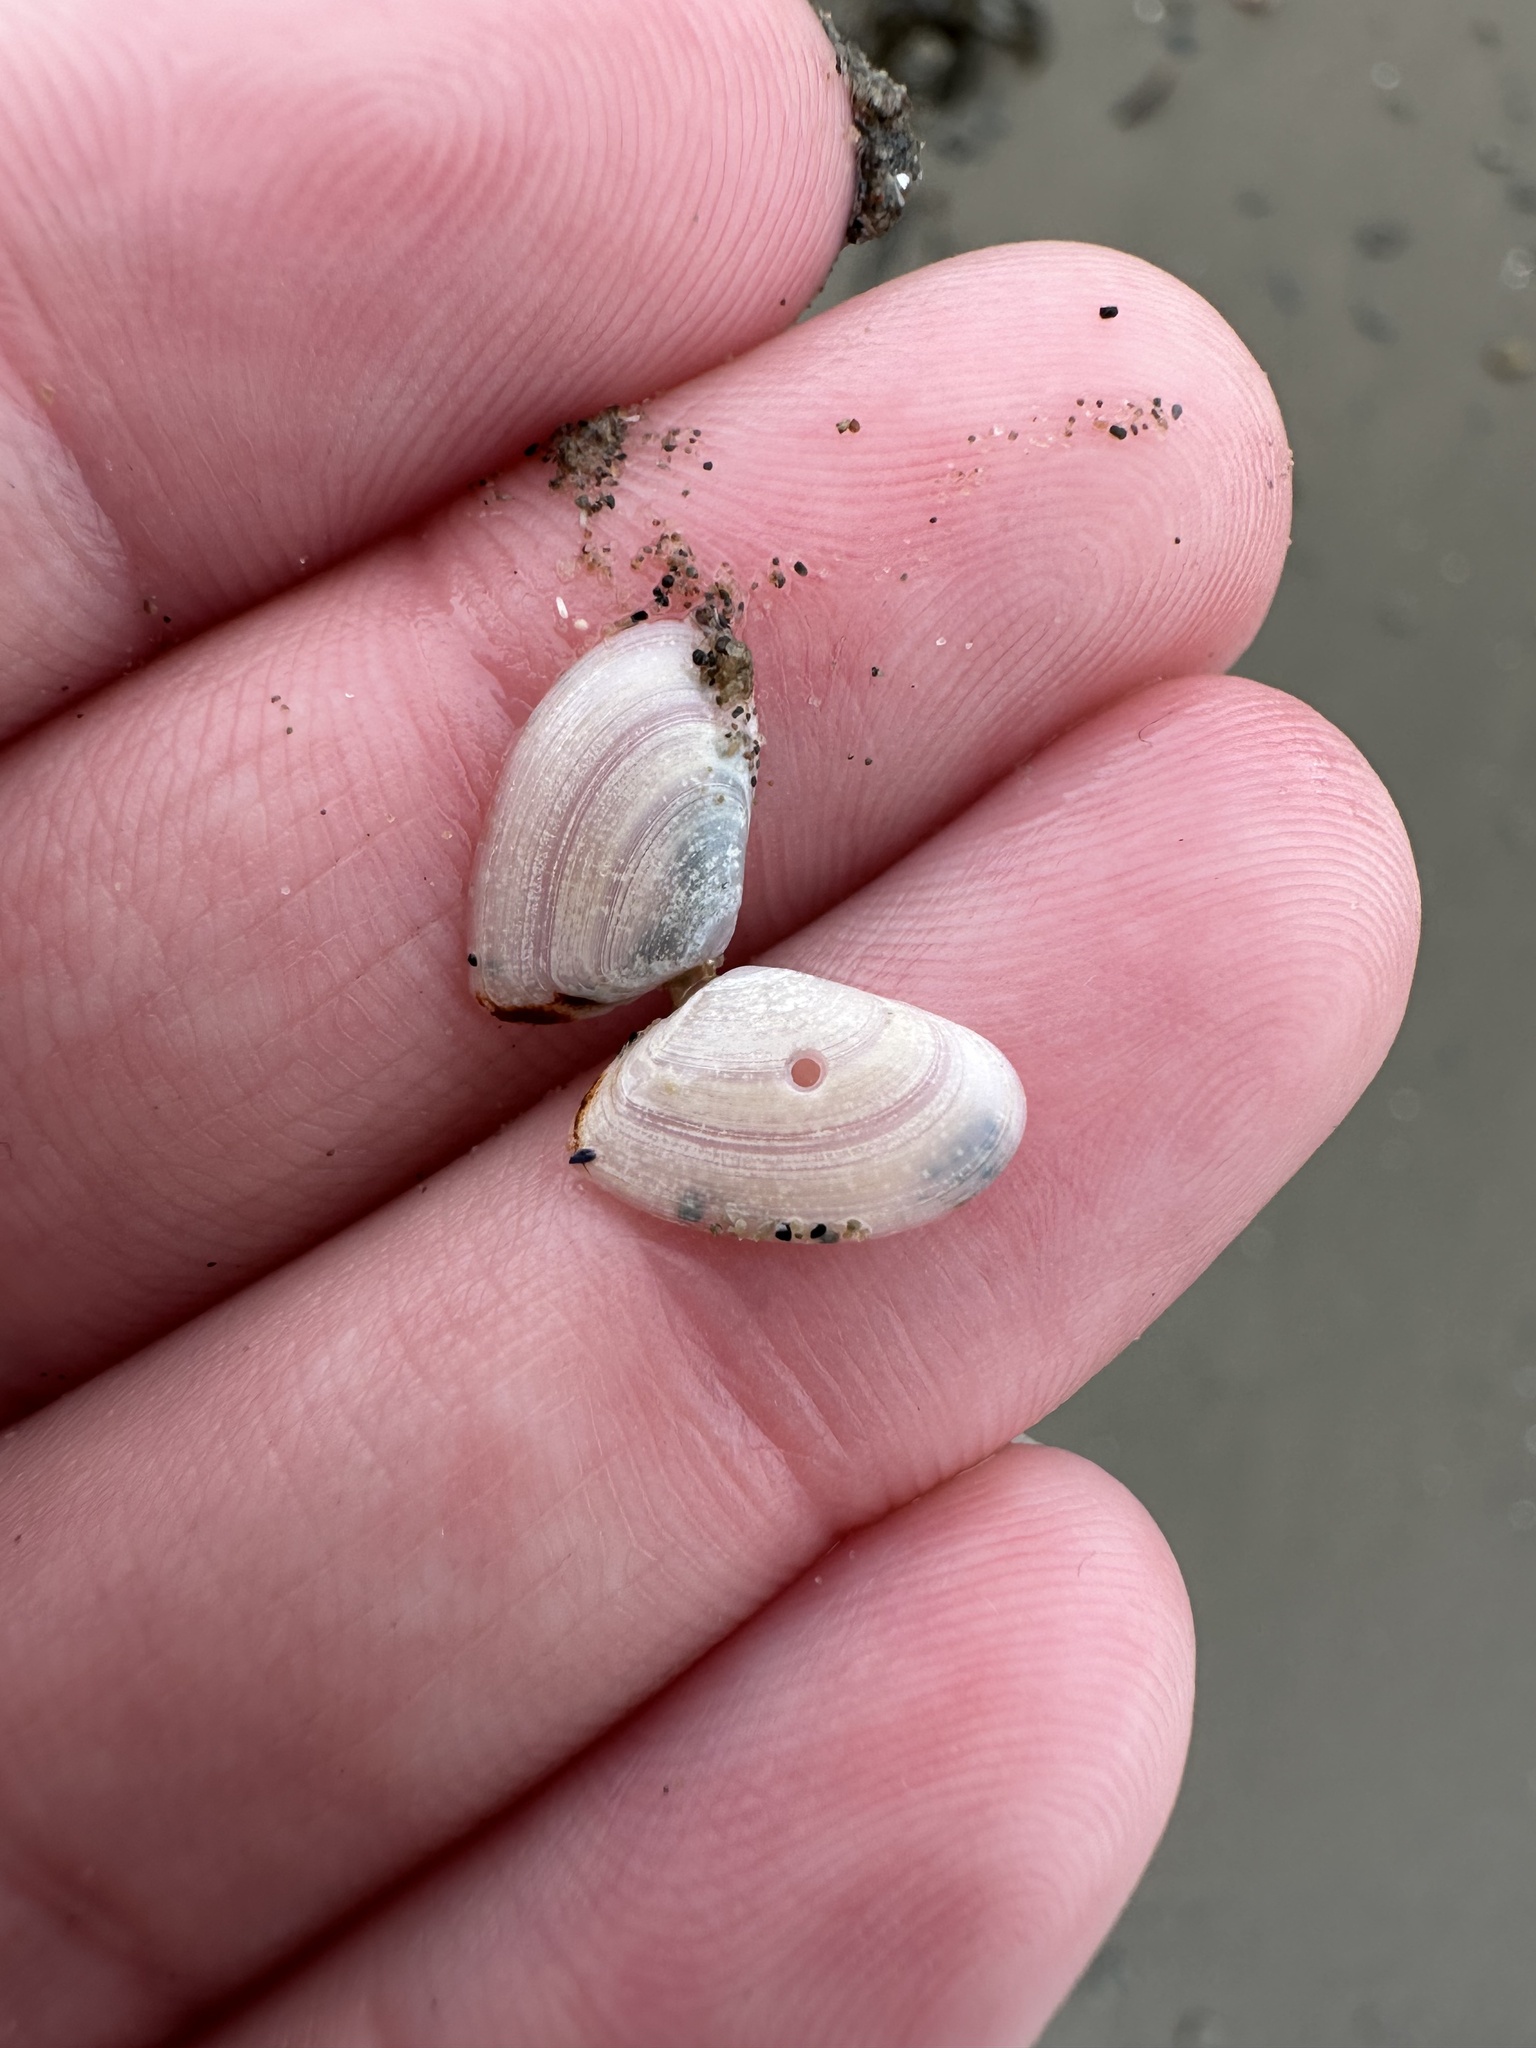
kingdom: Animalia
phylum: Mollusca
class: Bivalvia
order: Cardiida
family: Tellinidae
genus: Ameritella
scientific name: Ameritella agilis
